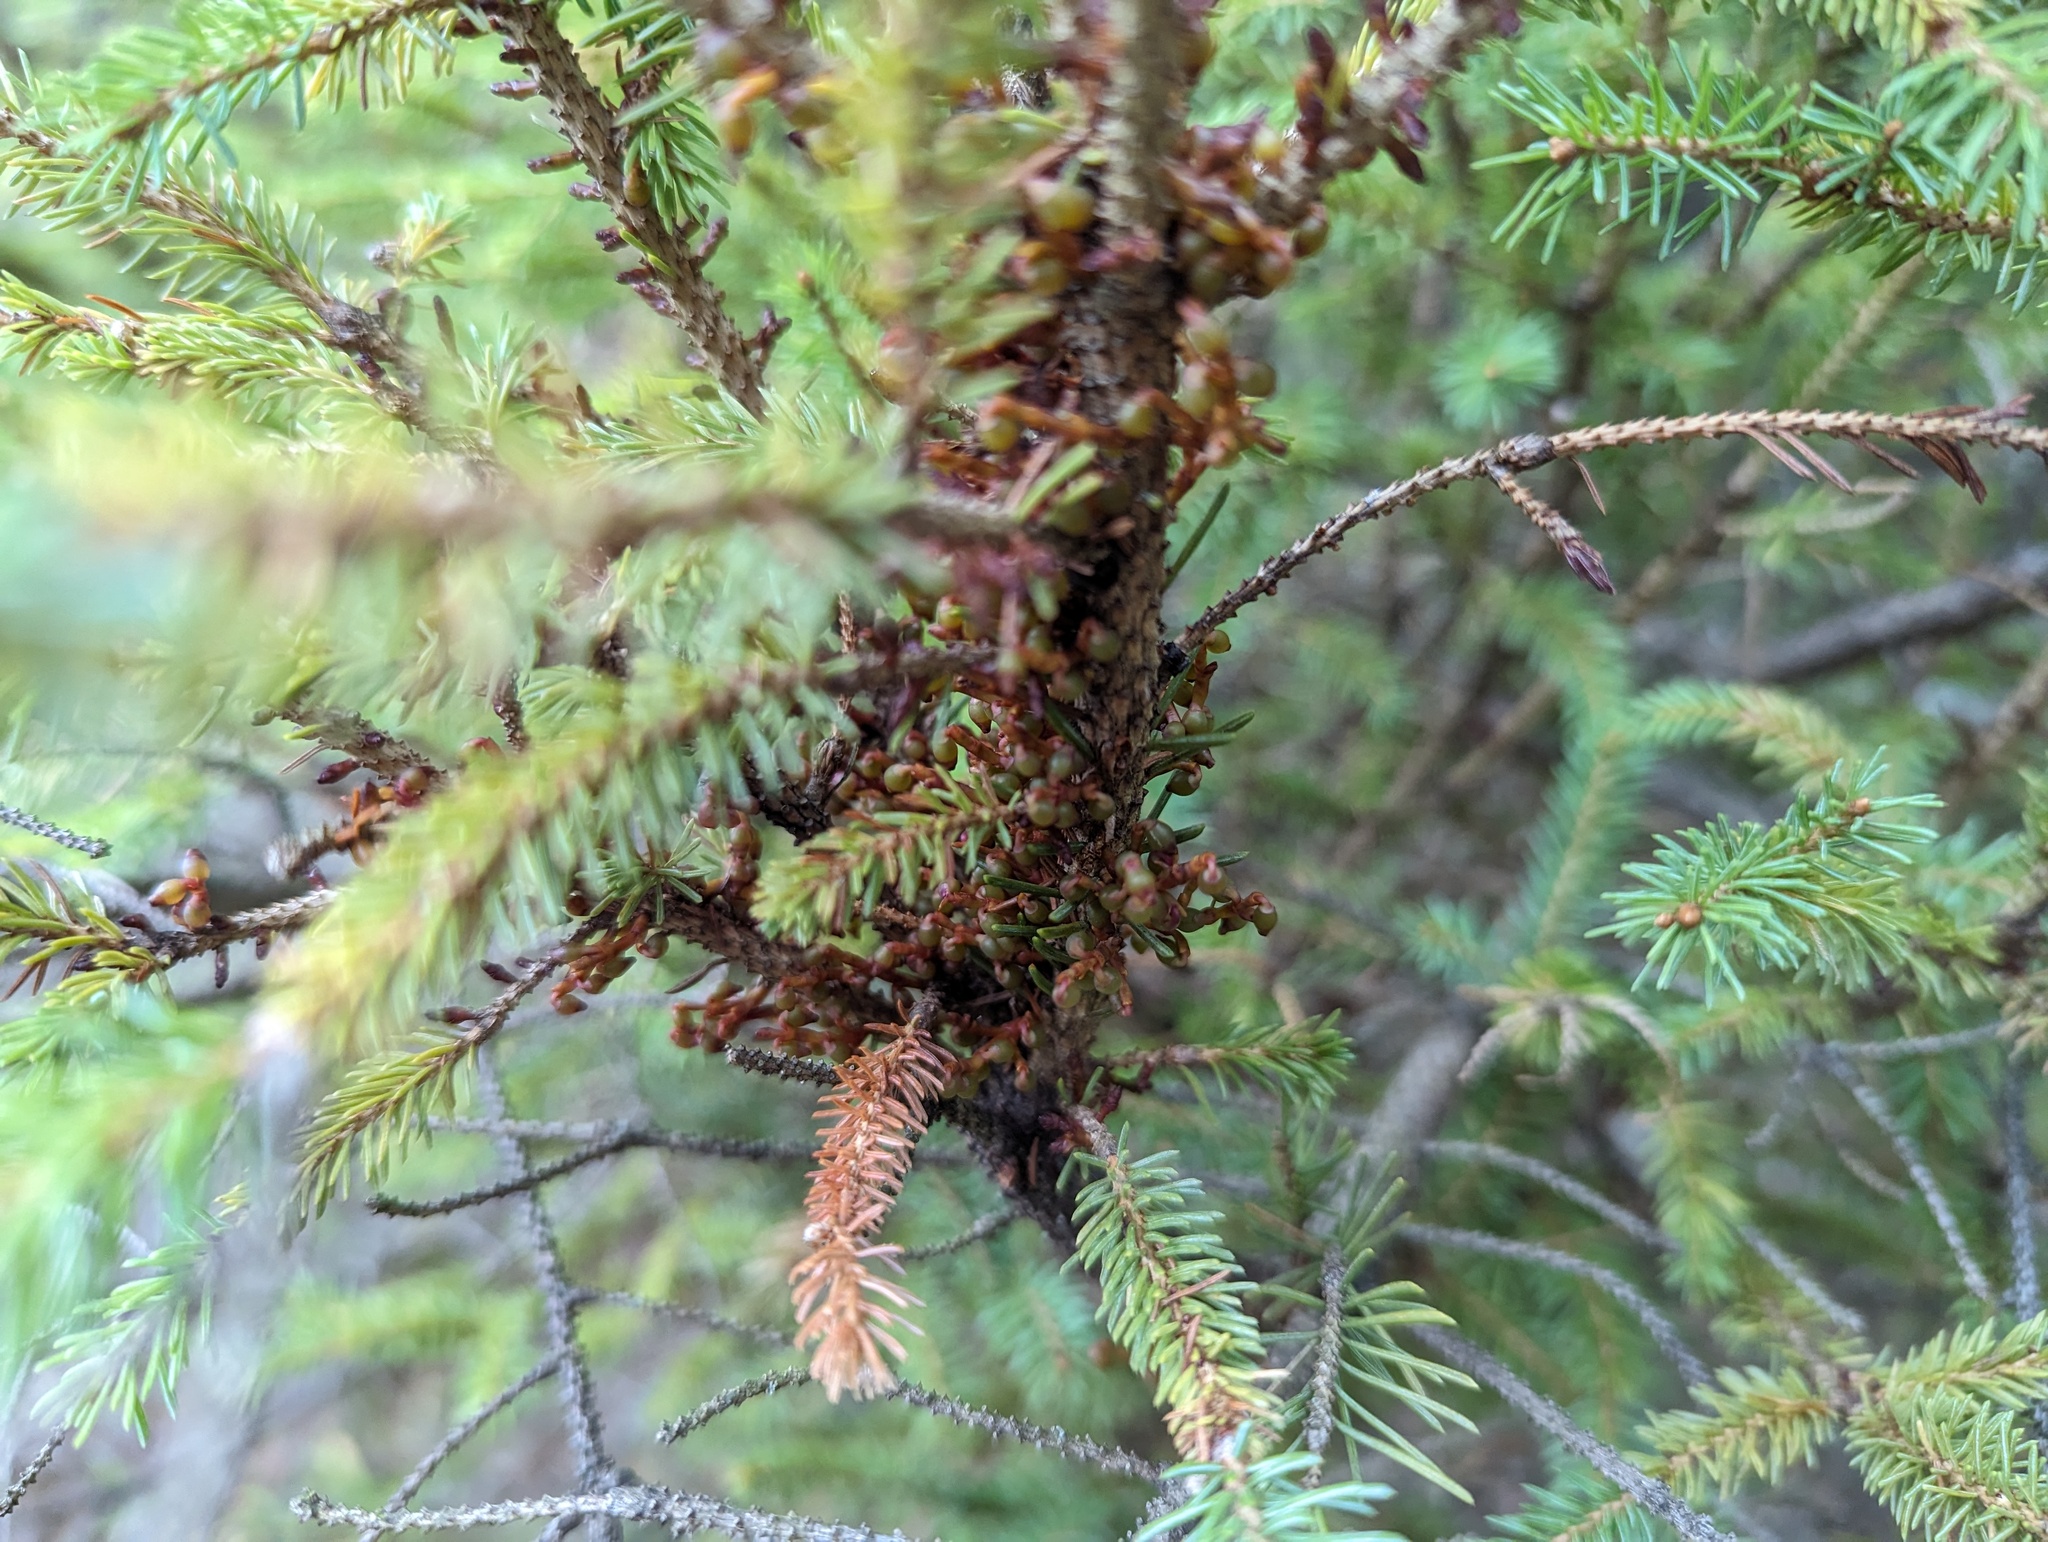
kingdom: Plantae
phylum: Tracheophyta
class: Magnoliopsida
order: Santalales
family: Viscaceae
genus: Arceuthobium
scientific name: Arceuthobium pusillum
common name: Dwarf-mistletoe
